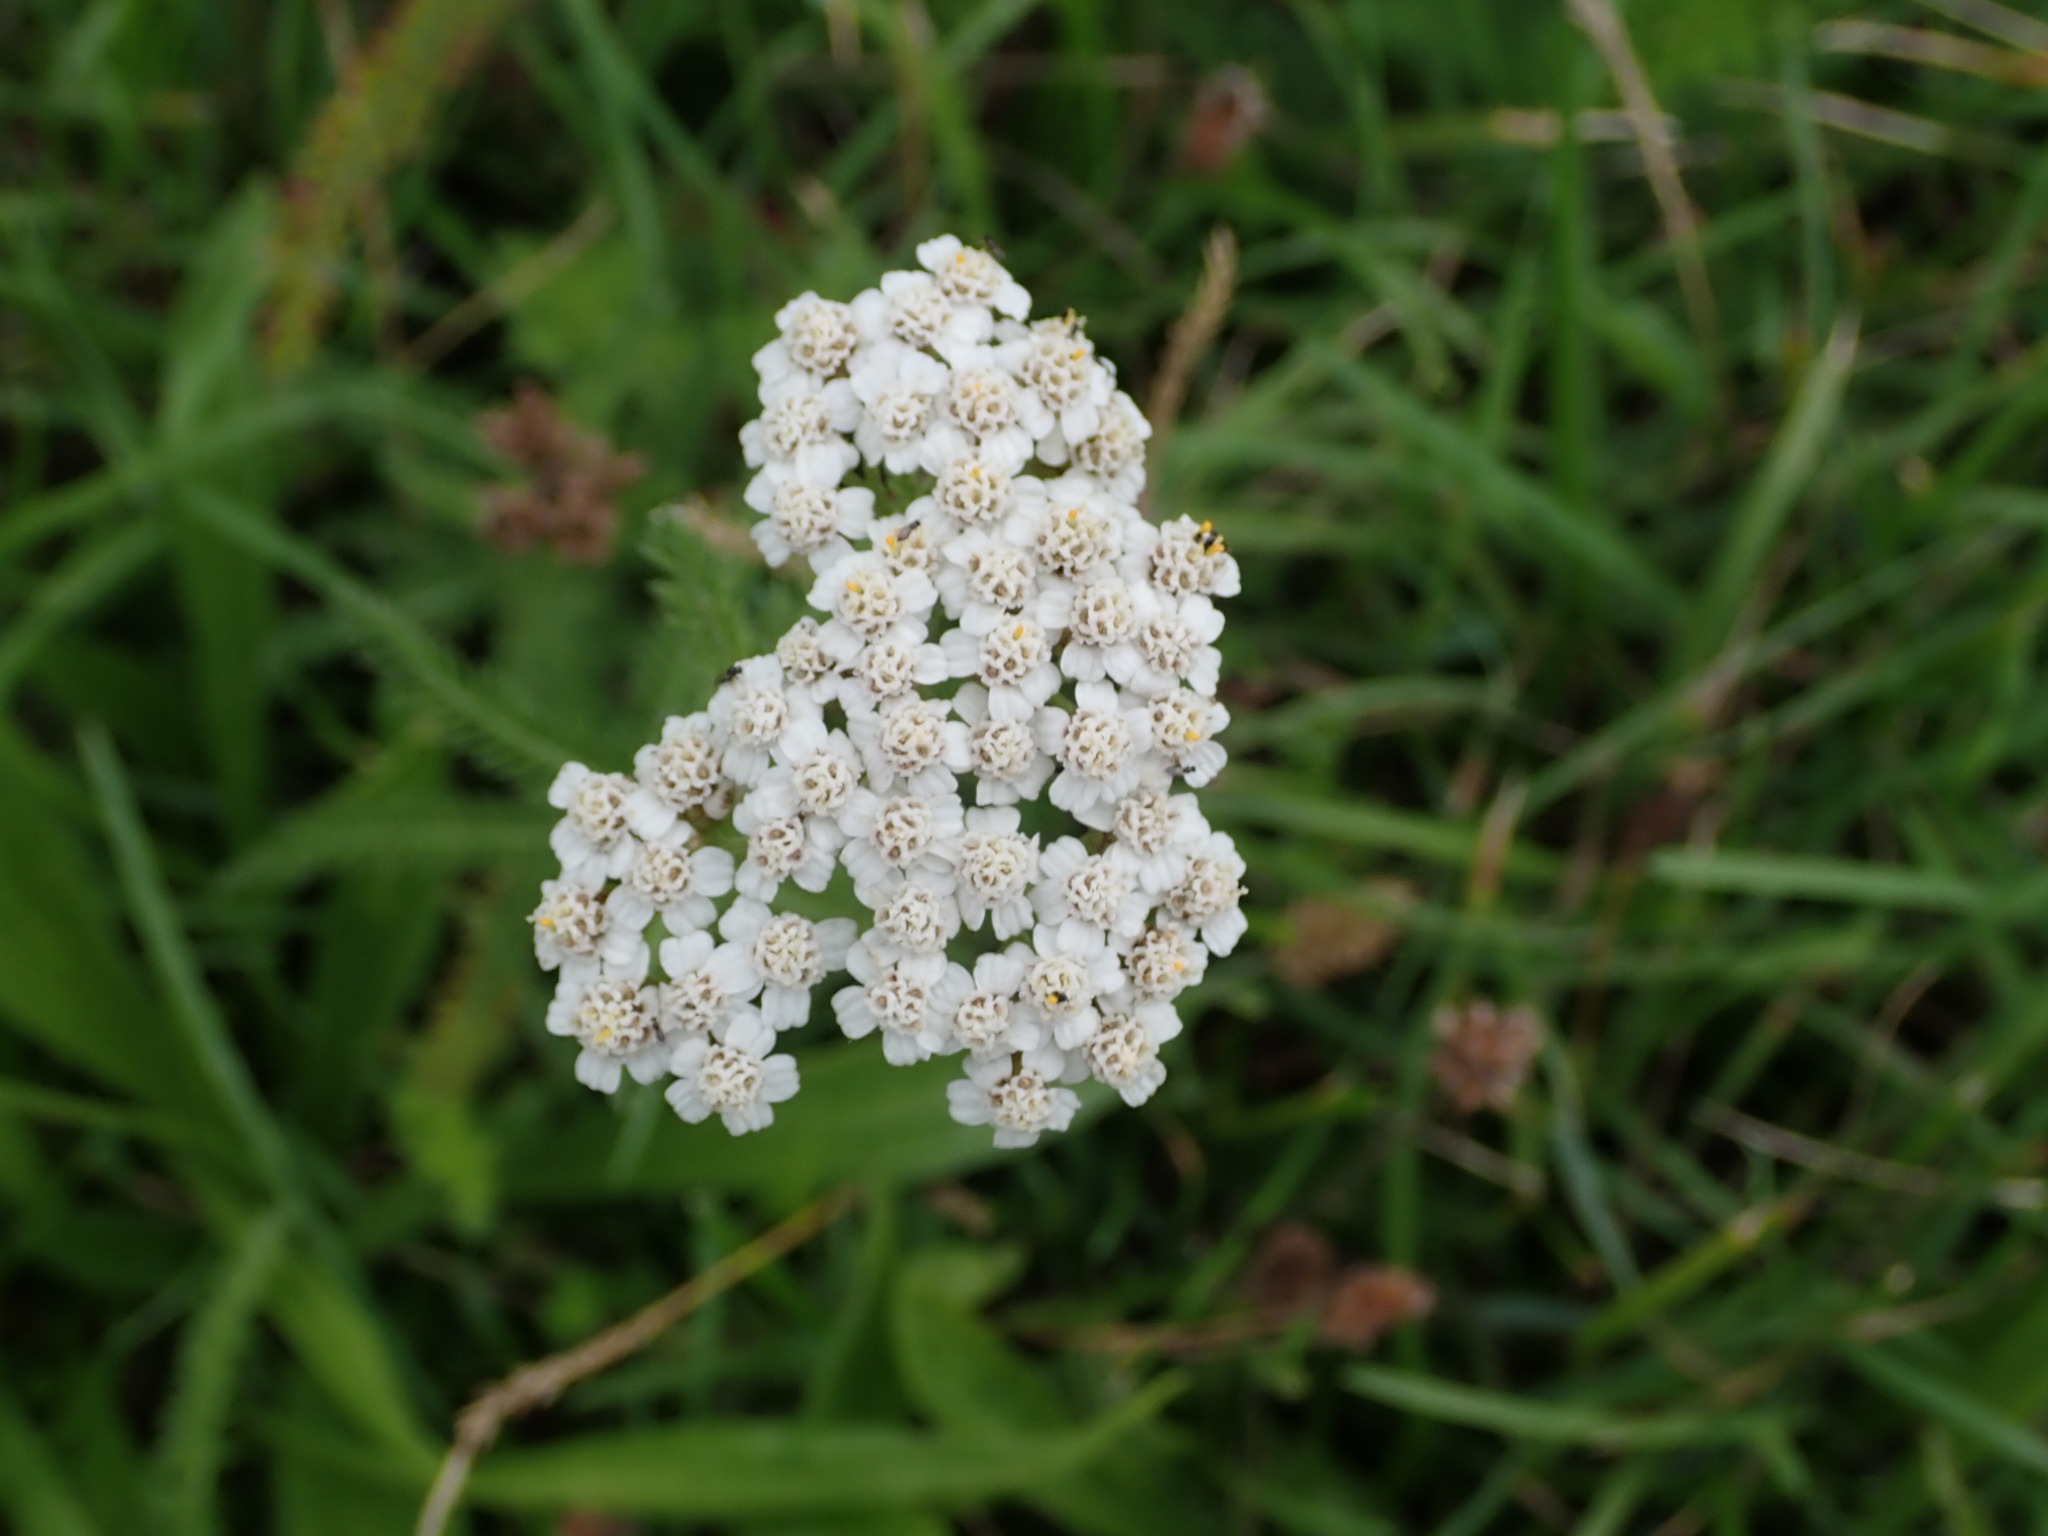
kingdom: Plantae
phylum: Tracheophyta
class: Magnoliopsida
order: Asterales
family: Asteraceae
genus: Achillea
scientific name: Achillea millefolium
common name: Yarrow
